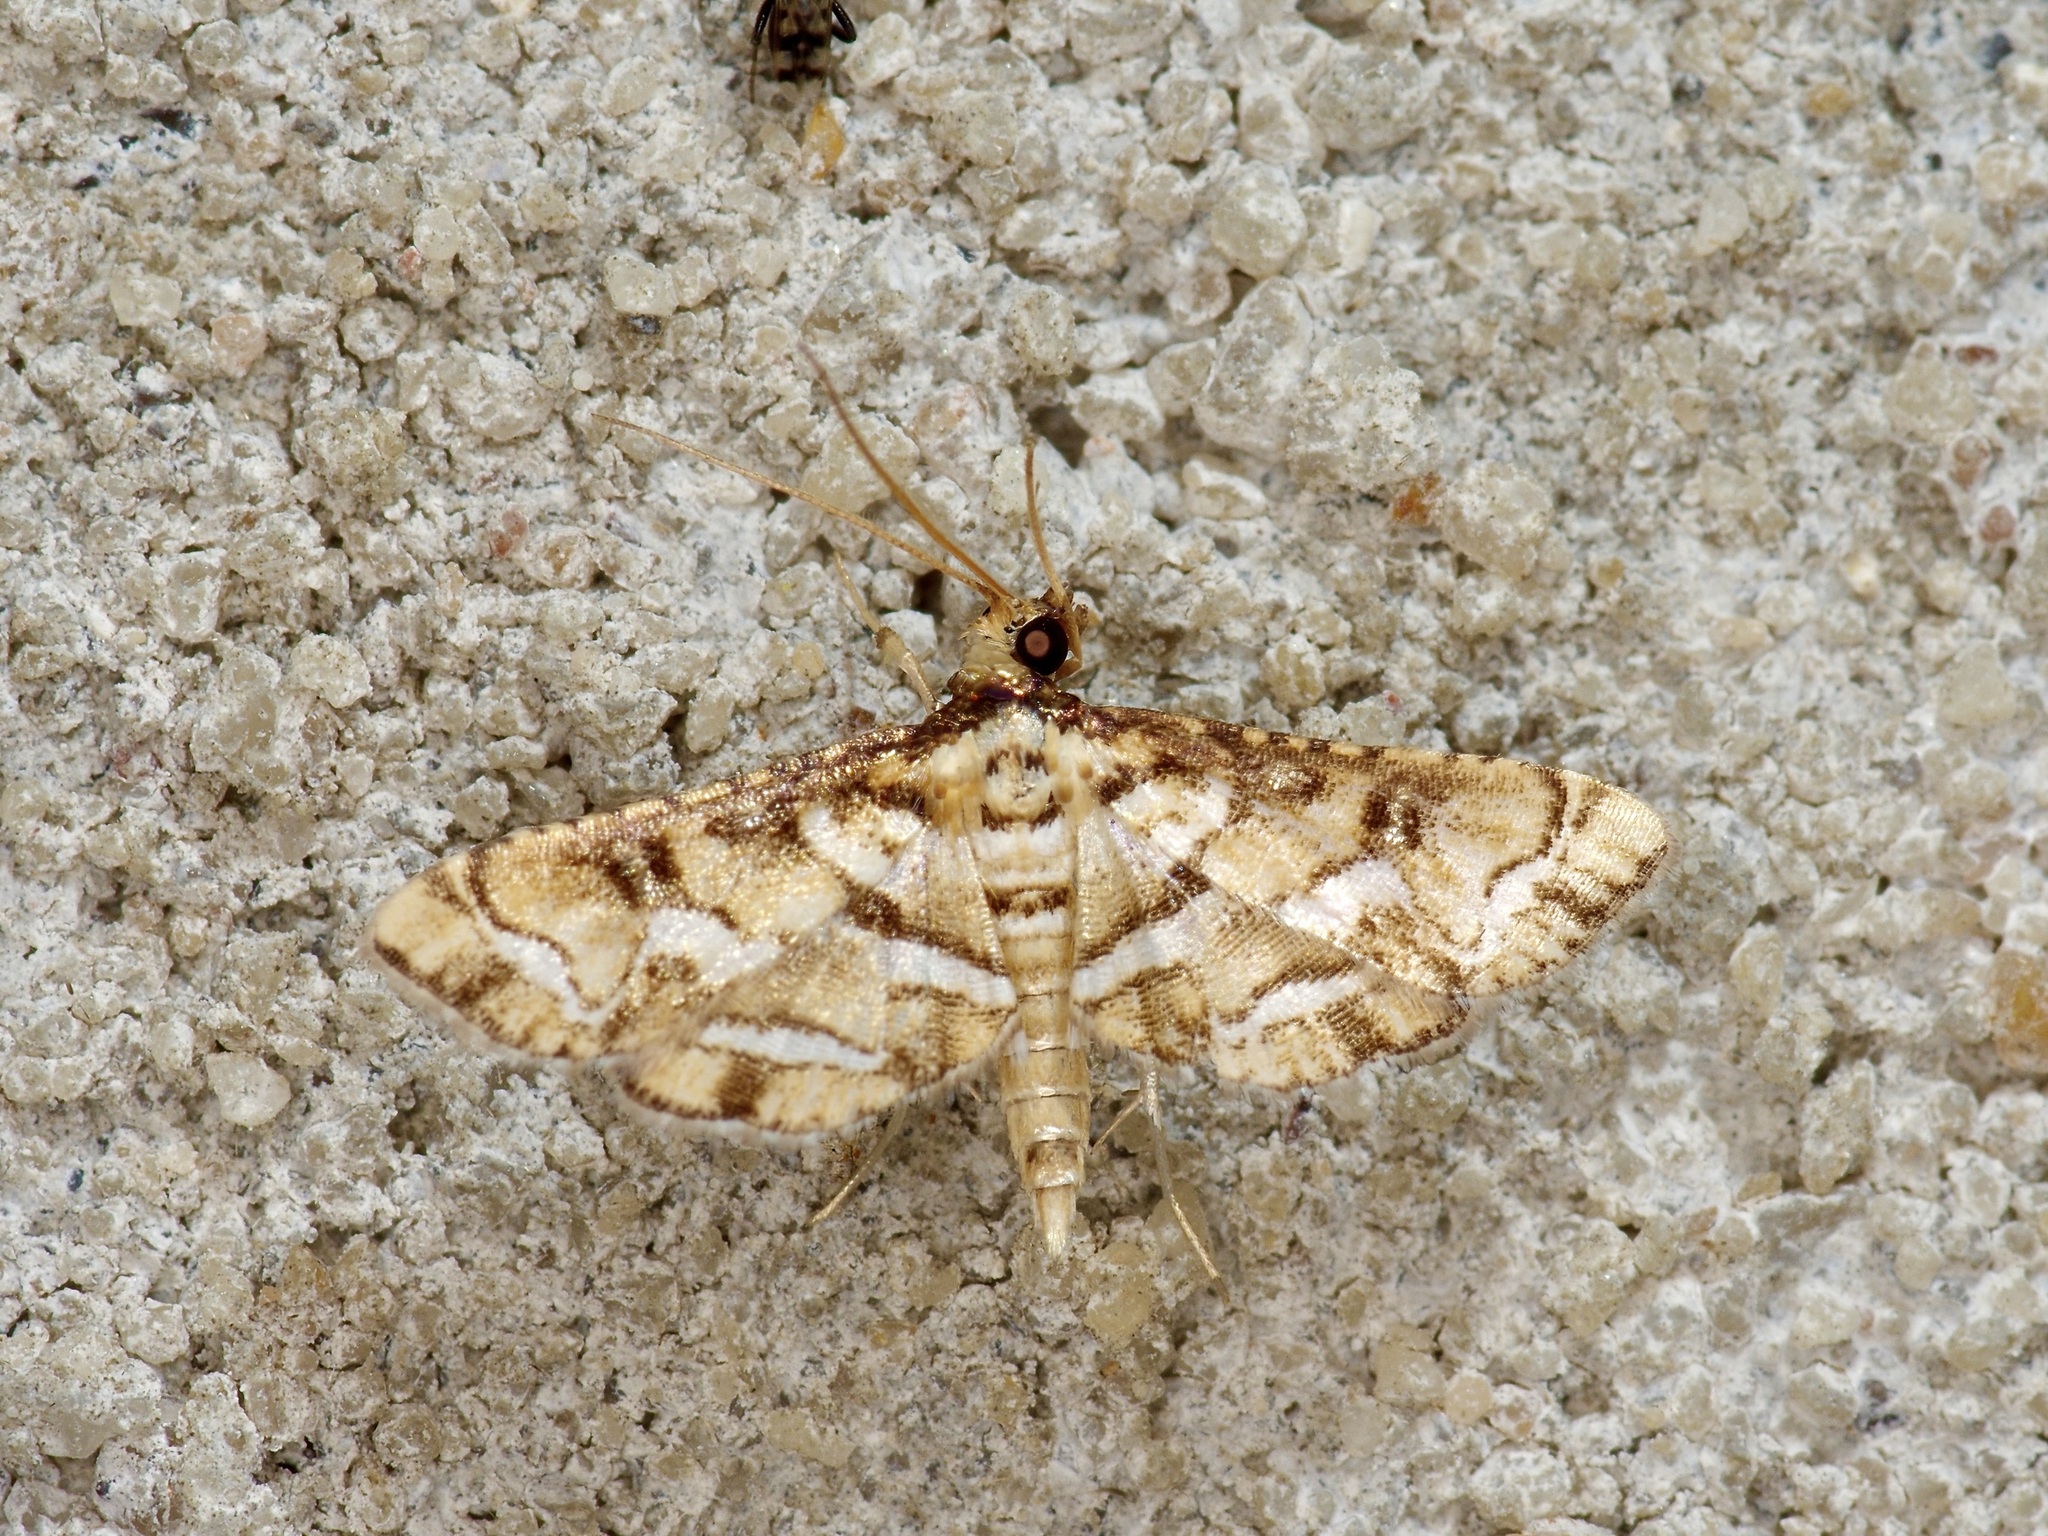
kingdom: Animalia
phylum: Arthropoda
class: Insecta
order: Lepidoptera
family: Crambidae
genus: Hileithia
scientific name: Hileithia magualis
